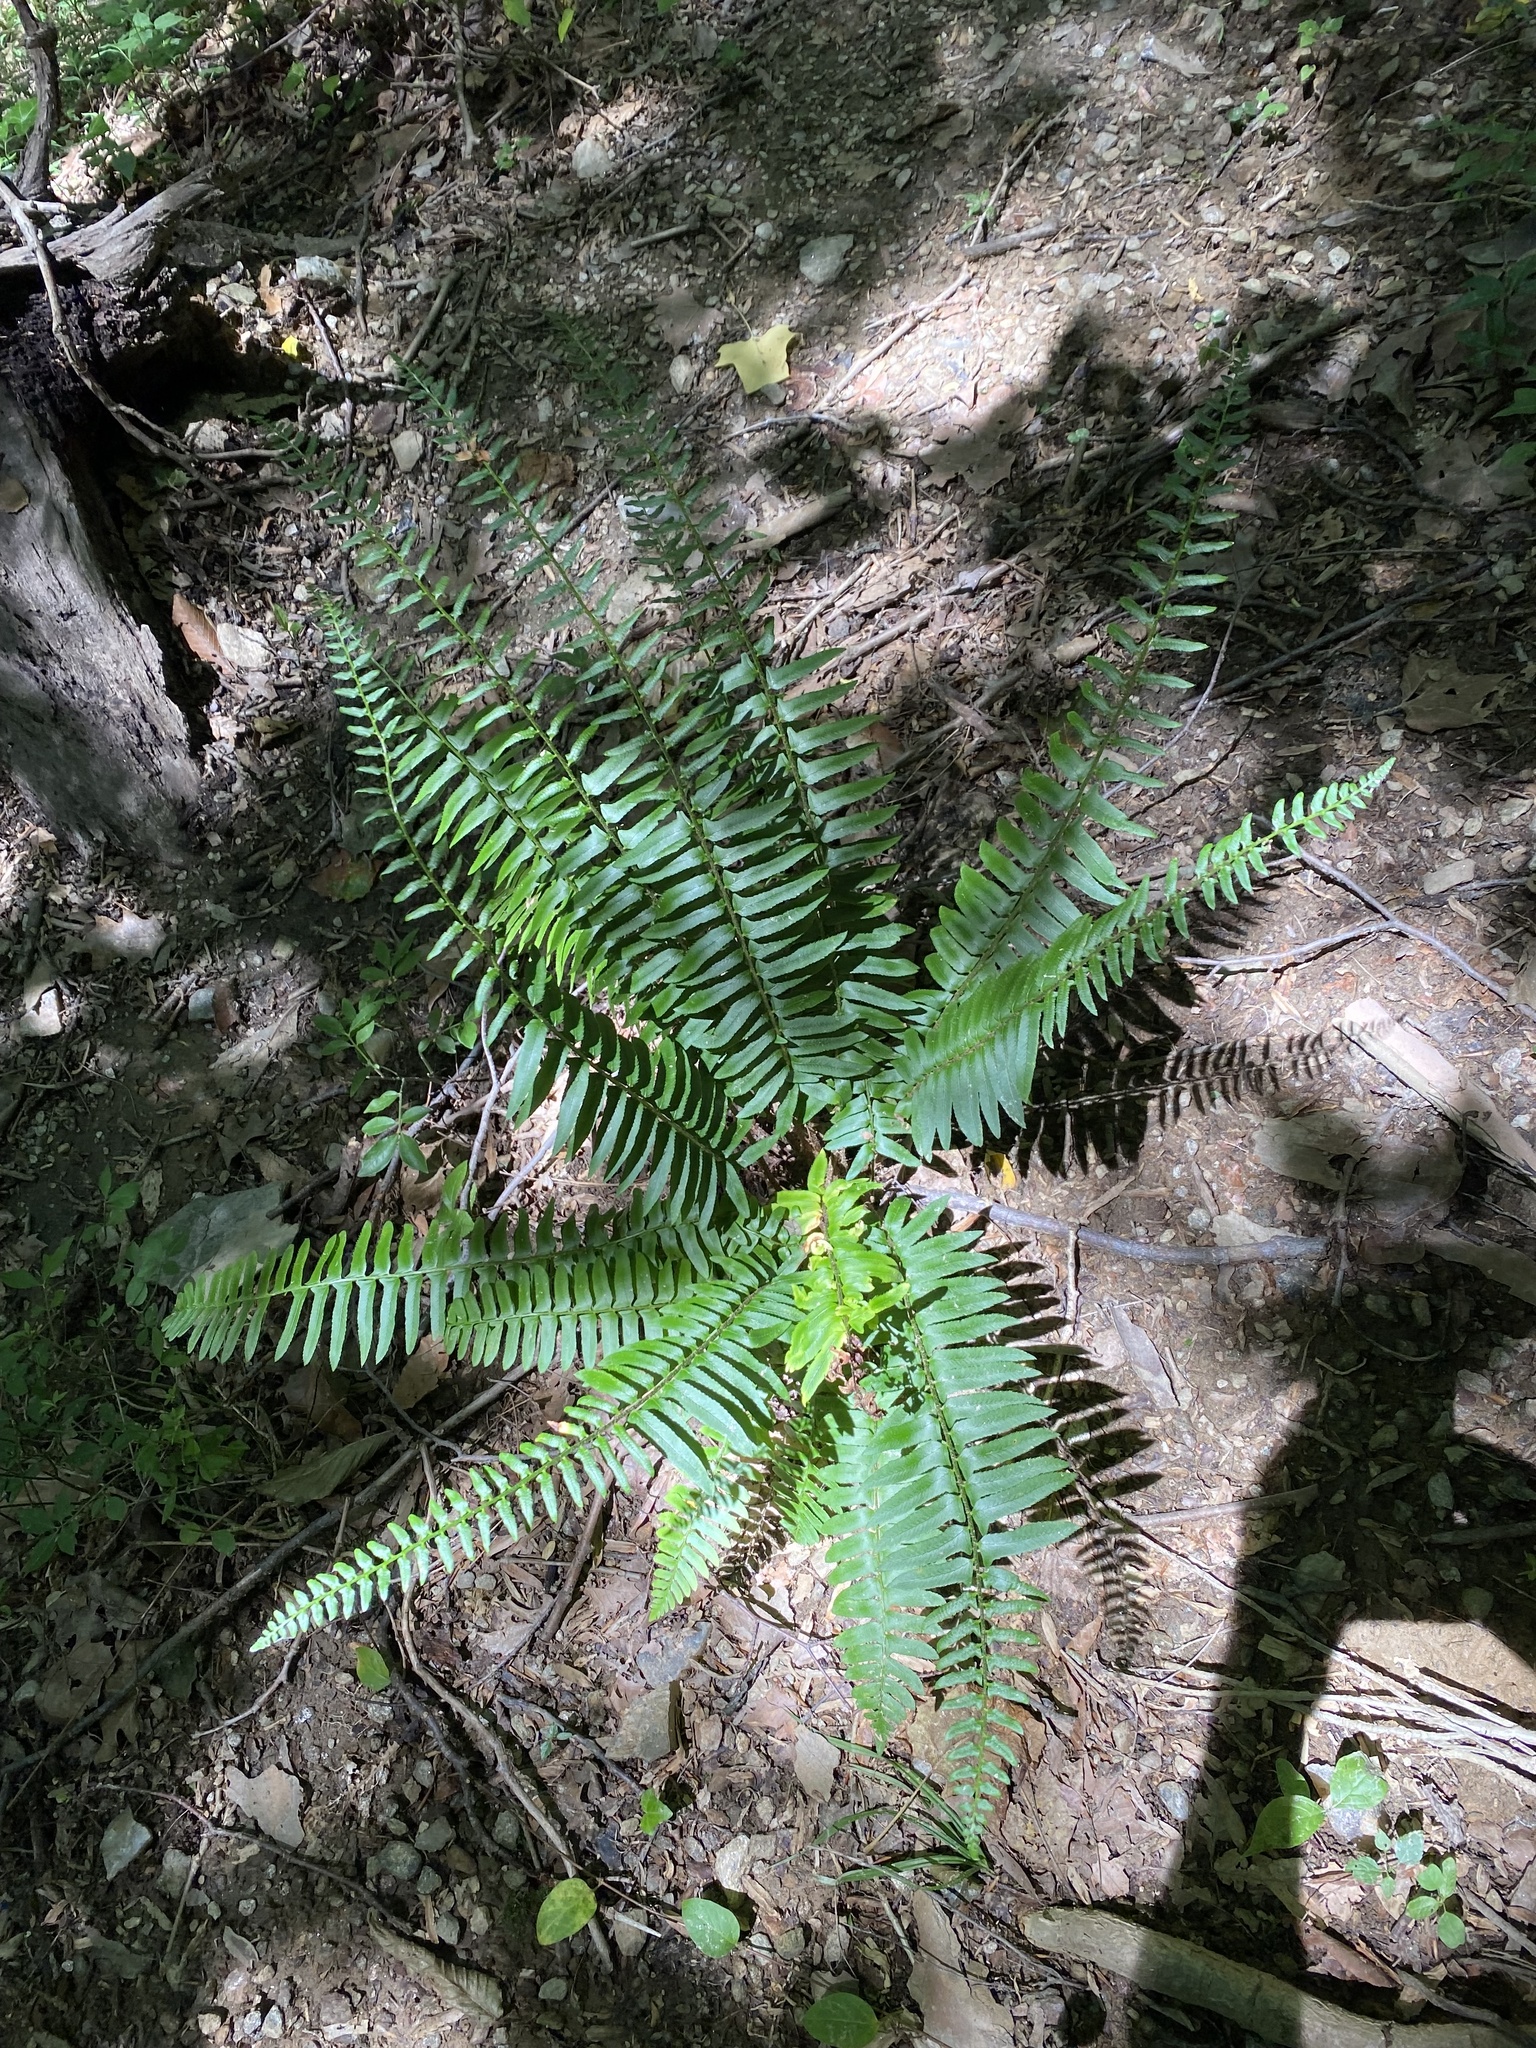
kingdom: Plantae
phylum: Tracheophyta
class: Polypodiopsida
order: Polypodiales
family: Dryopteridaceae
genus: Polystichum
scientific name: Polystichum acrostichoides
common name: Christmas fern
